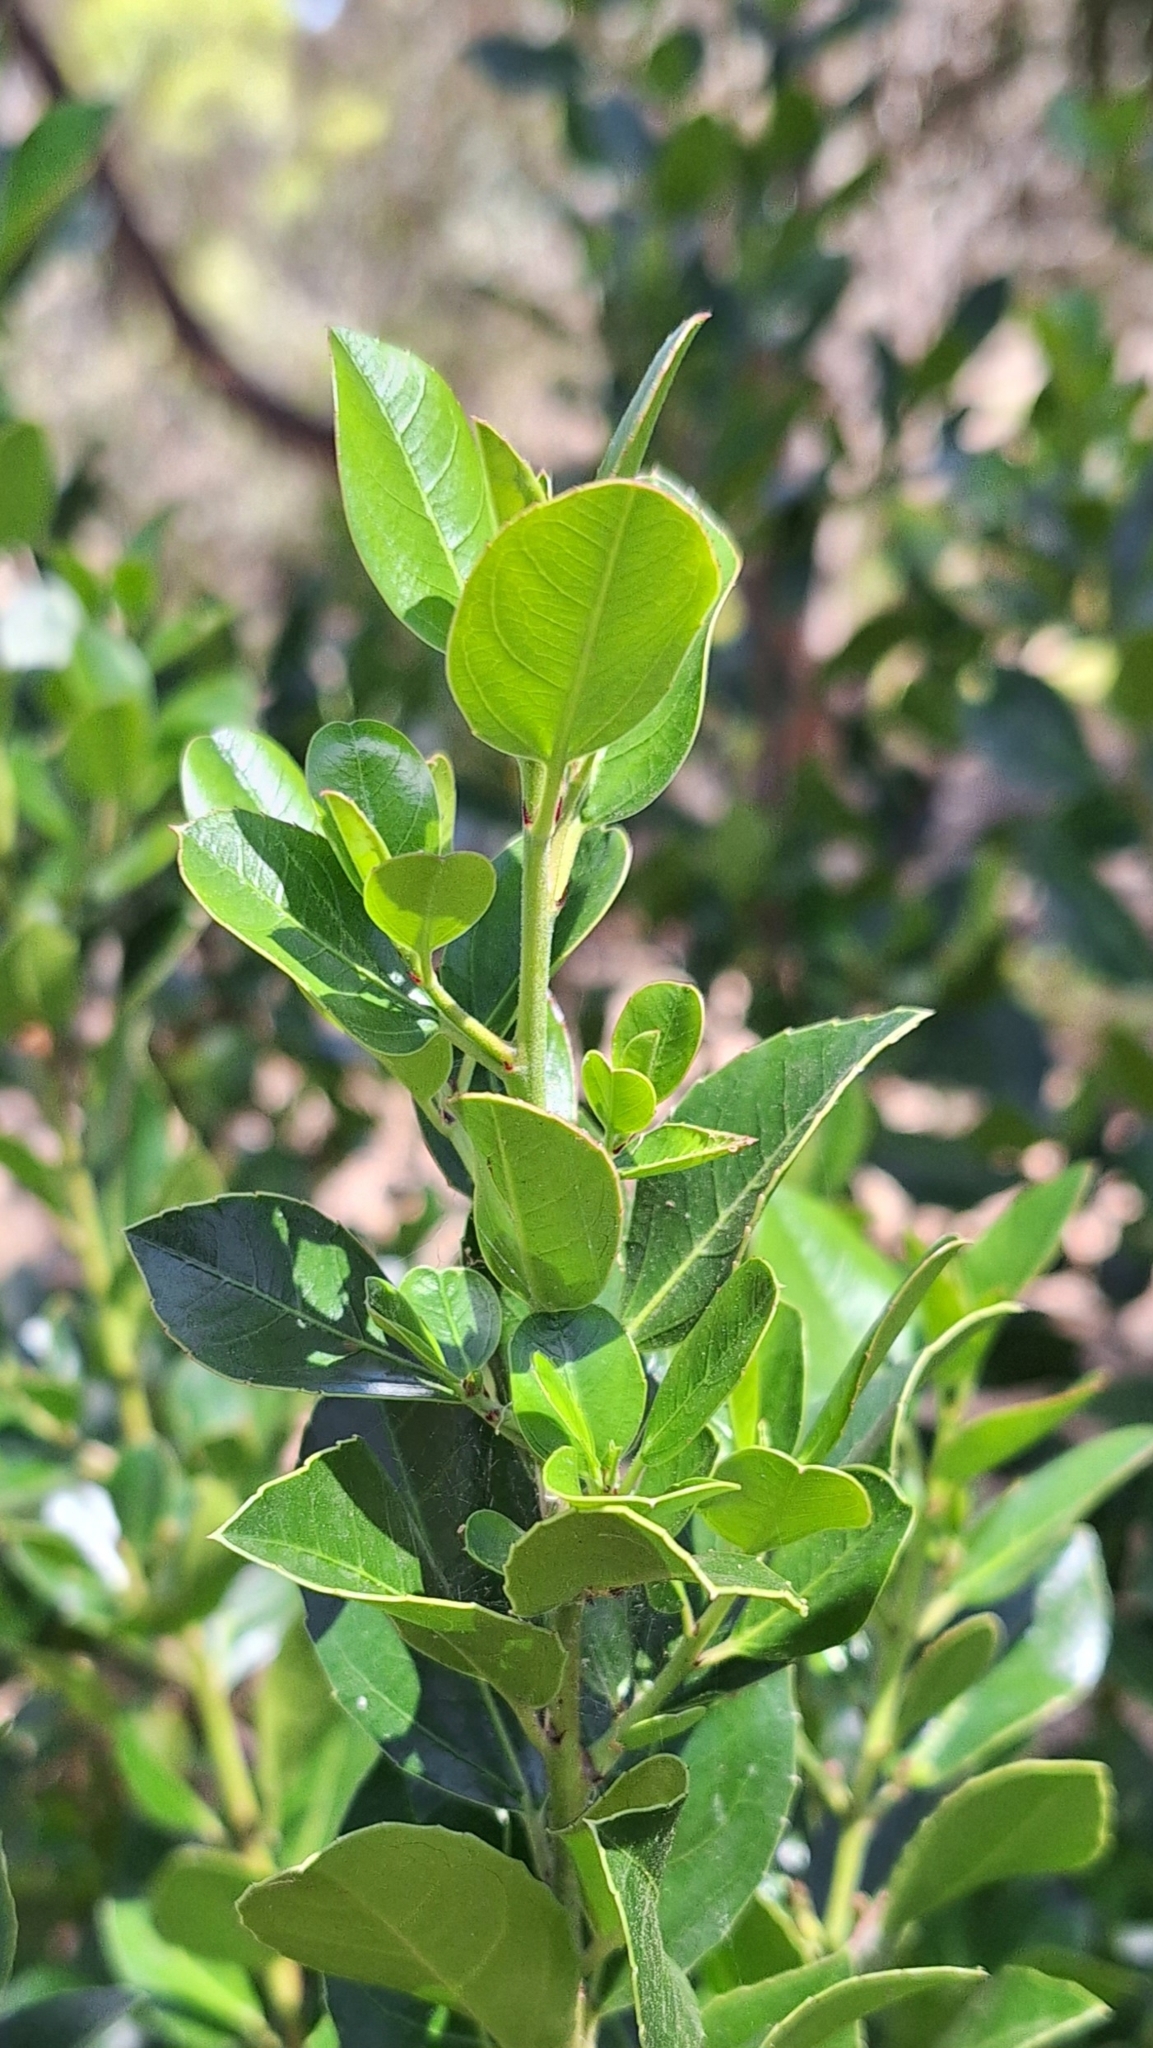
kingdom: Plantae
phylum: Tracheophyta
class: Magnoliopsida
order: Rosales
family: Rhamnaceae
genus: Rhamnus
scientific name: Rhamnus alaternus
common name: Mediterranean buckthorn
